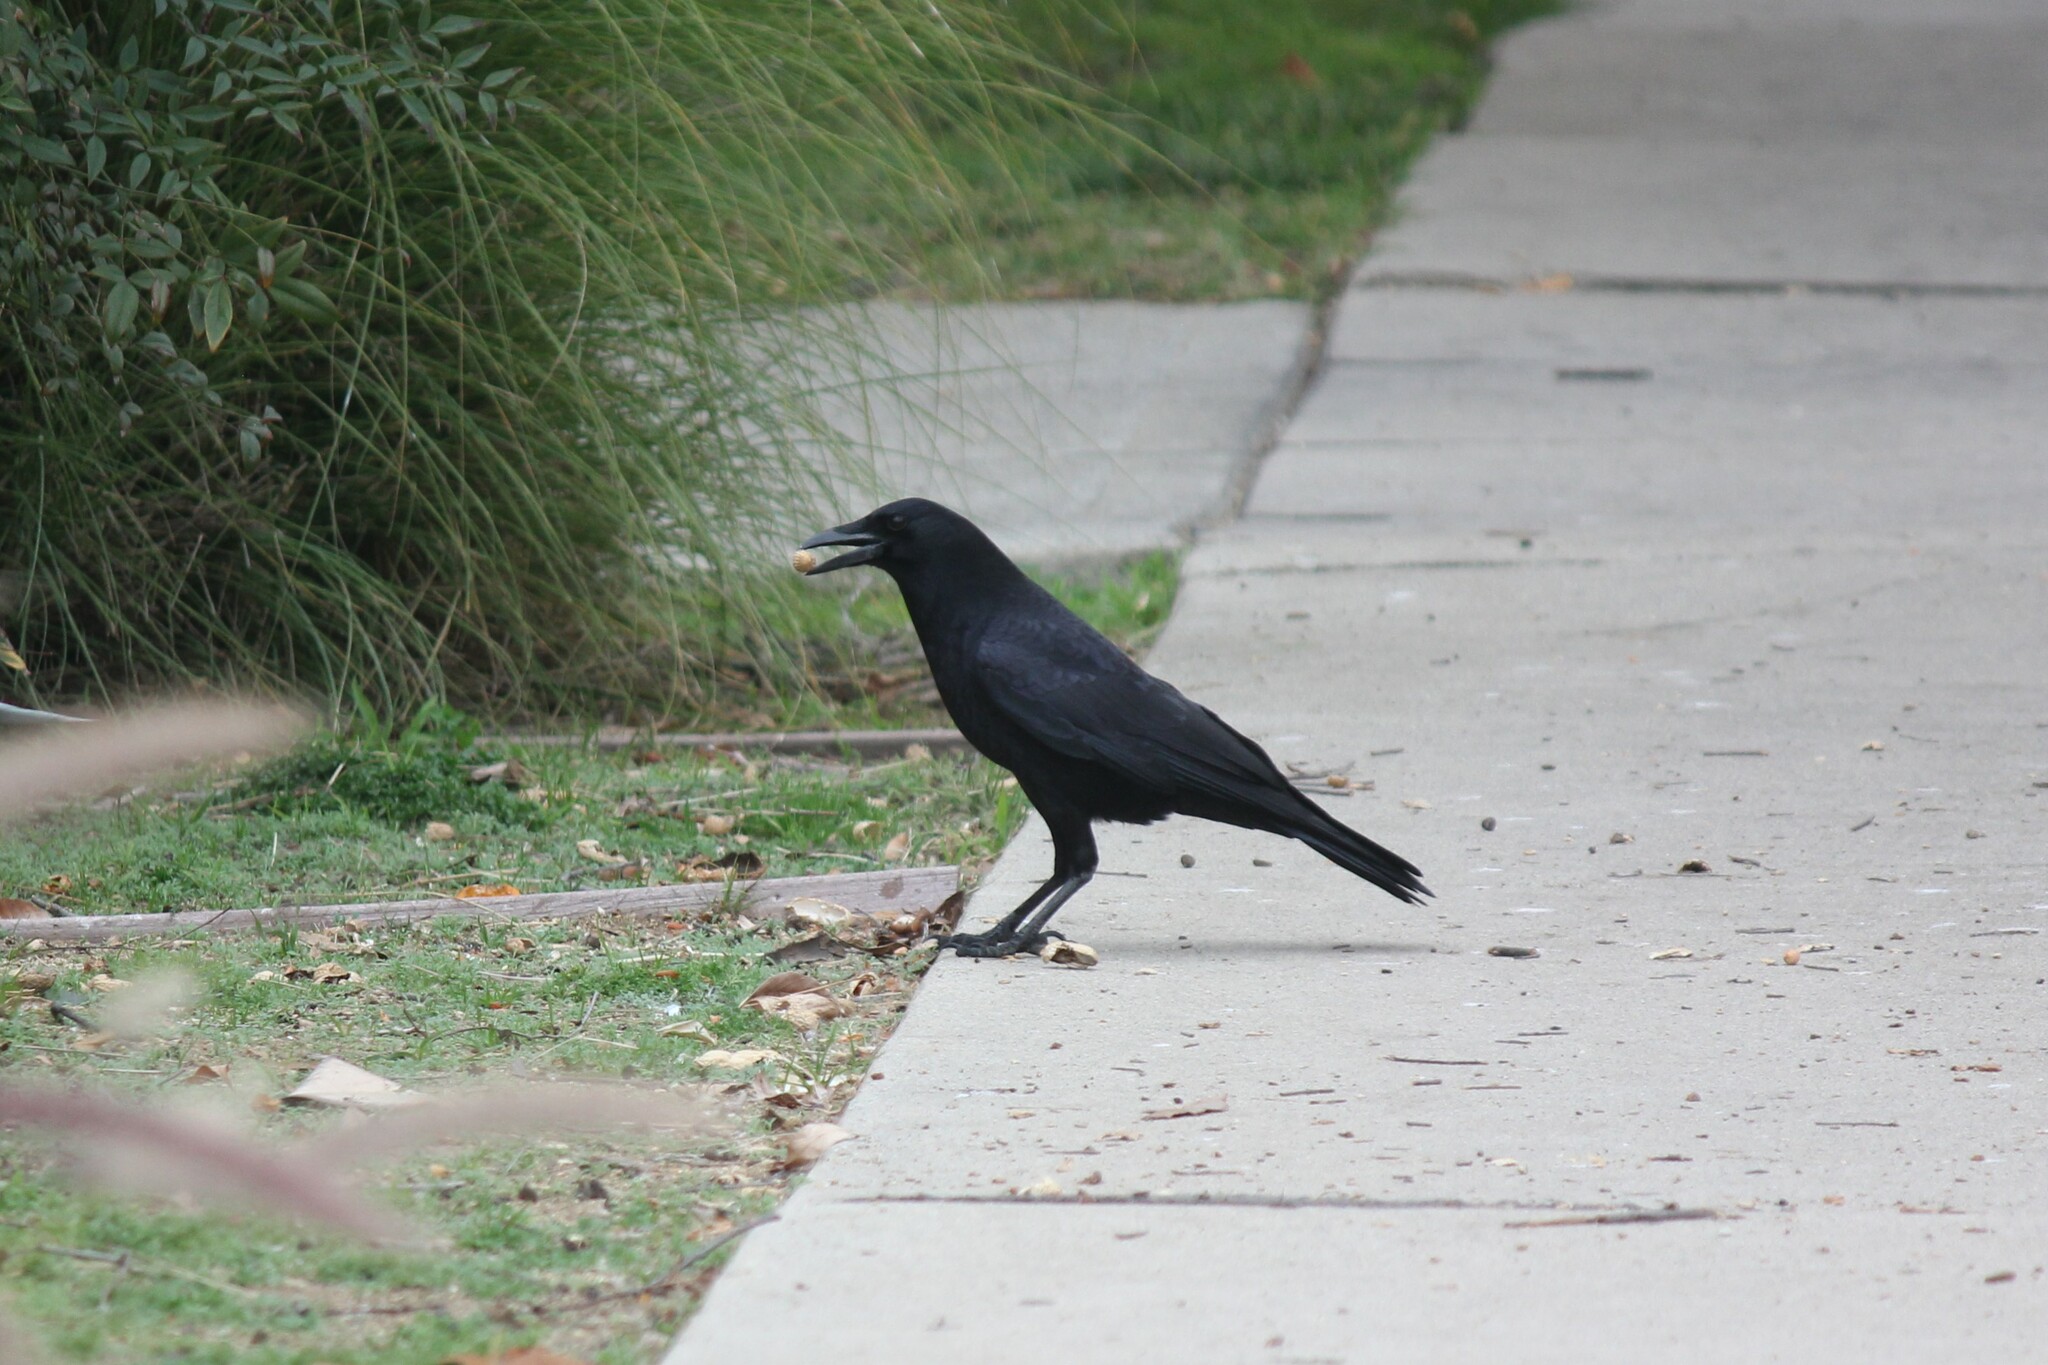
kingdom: Animalia
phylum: Chordata
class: Aves
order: Passeriformes
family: Corvidae
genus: Corvus
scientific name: Corvus brachyrhynchos
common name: American crow
